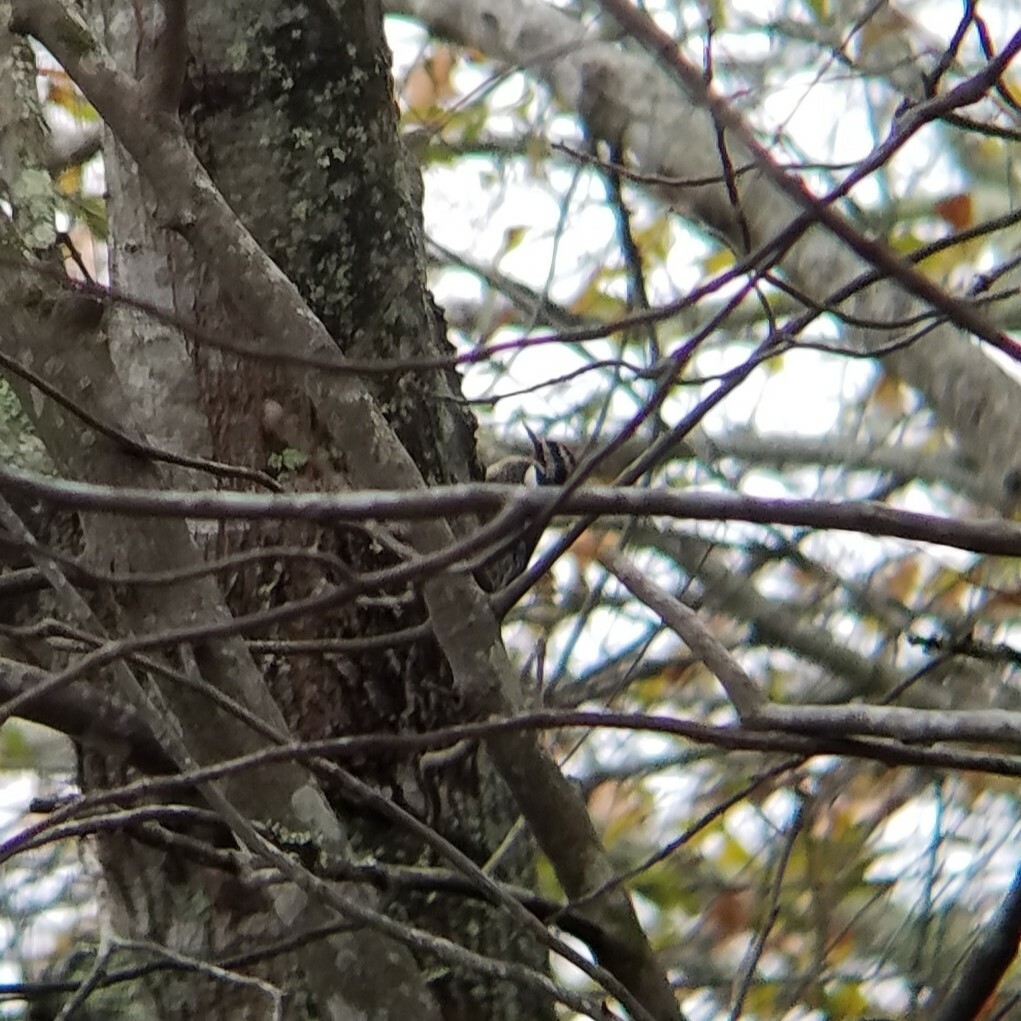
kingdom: Animalia
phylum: Chordata
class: Aves
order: Piciformes
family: Picidae
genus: Sphyrapicus
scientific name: Sphyrapicus varius
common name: Yellow-bellied sapsucker
